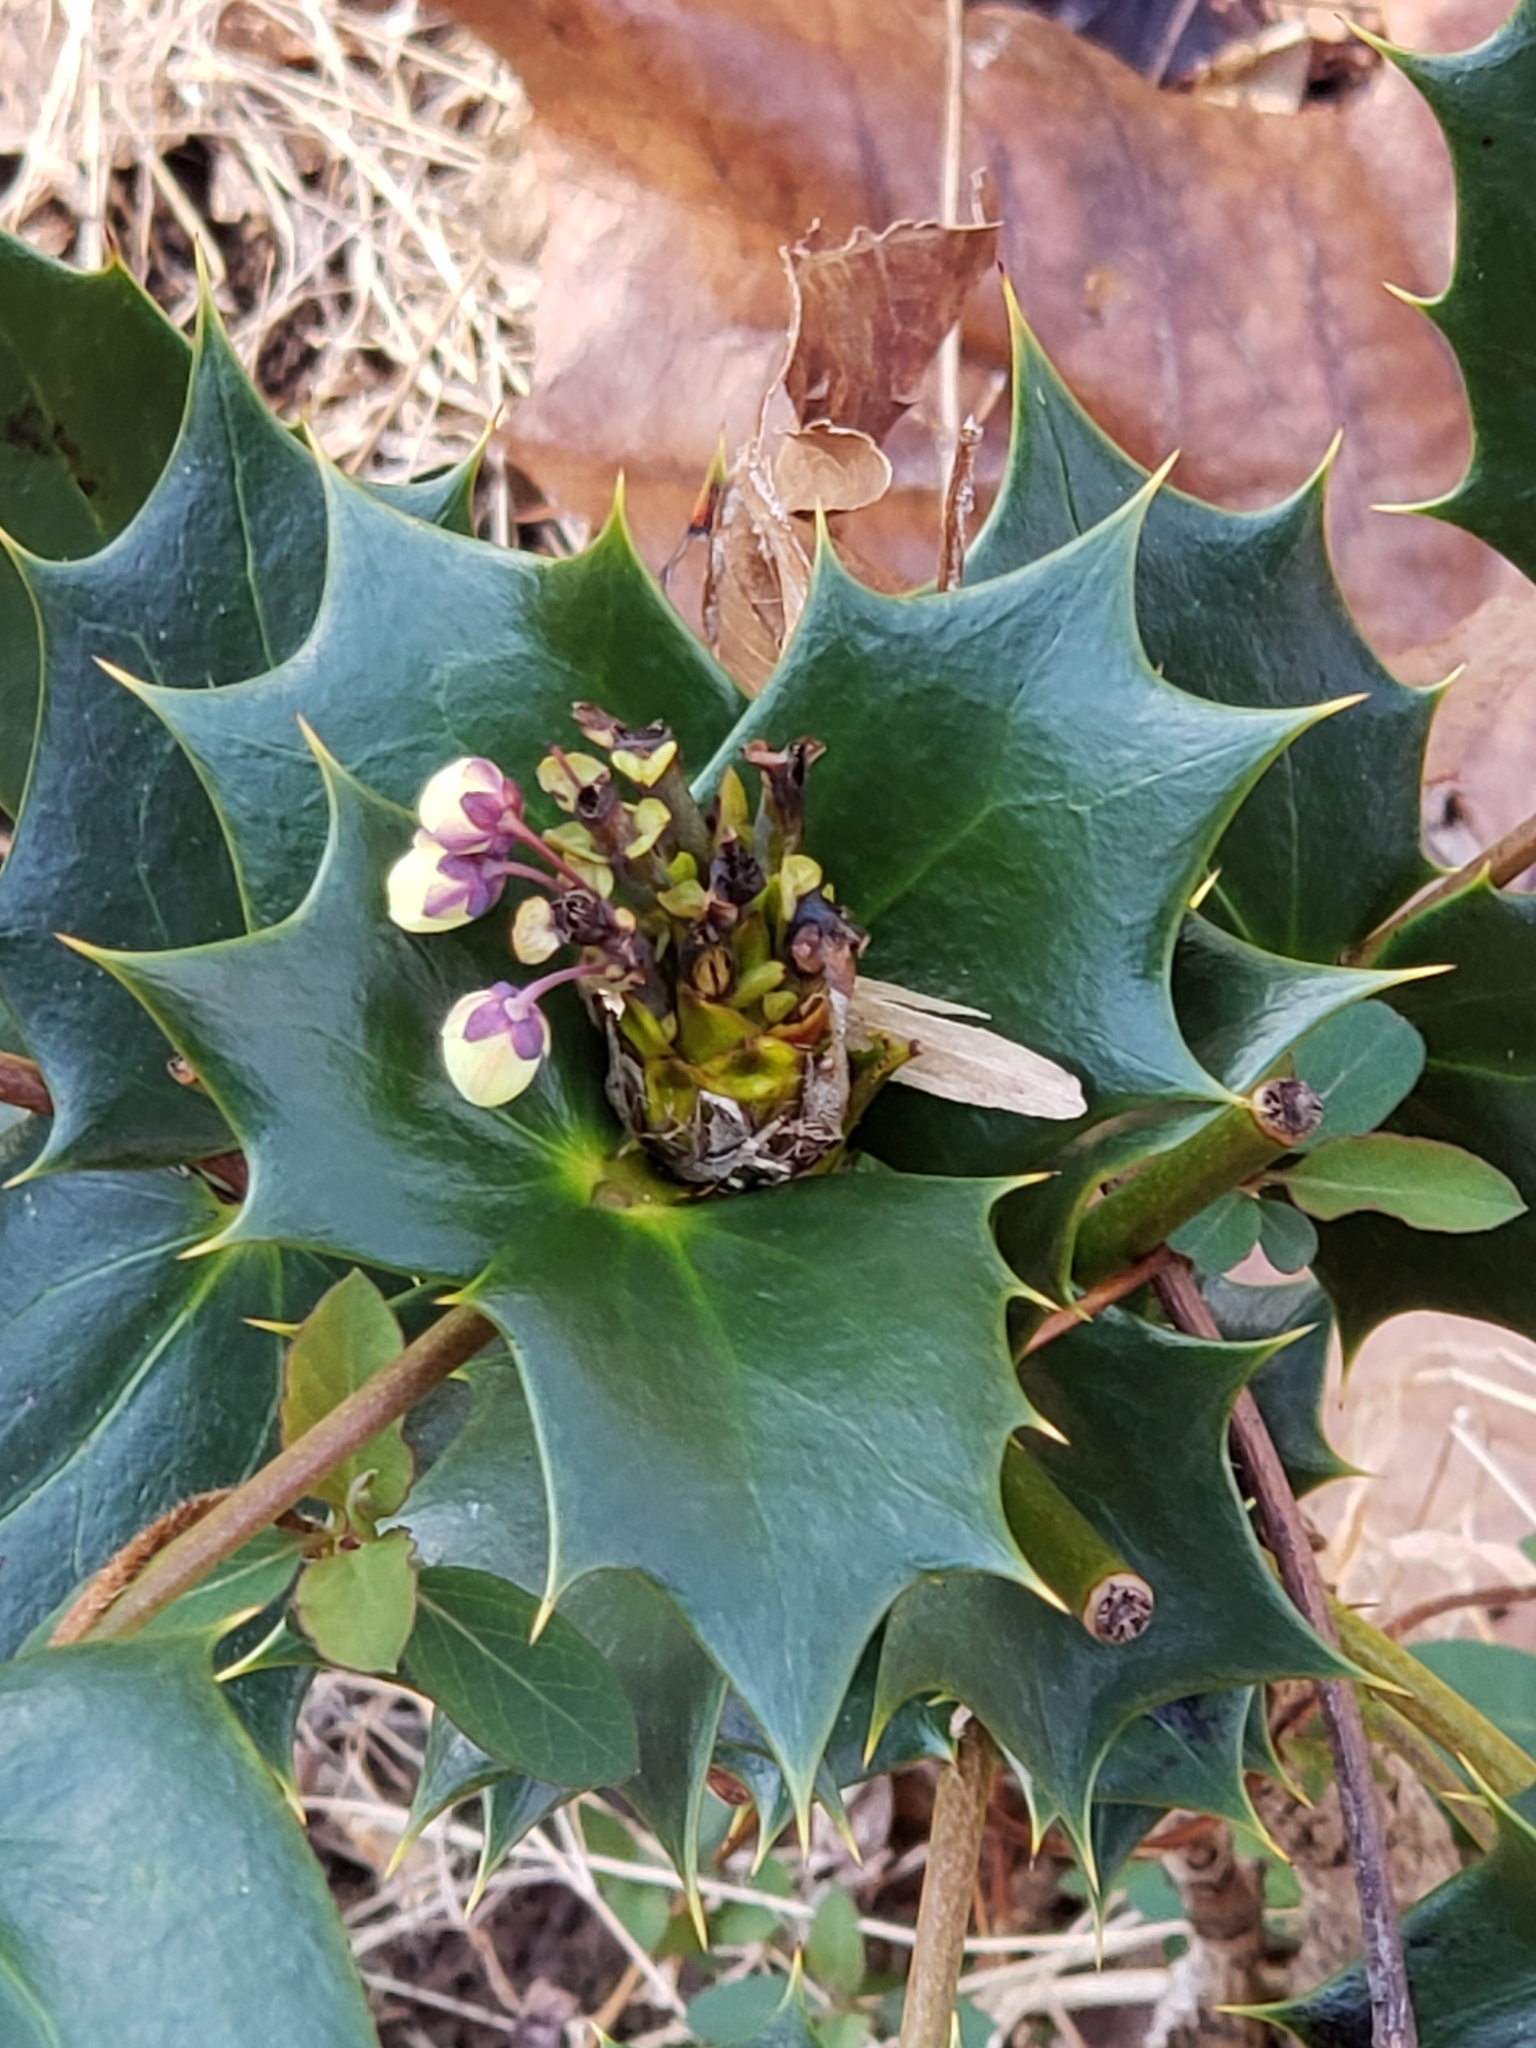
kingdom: Plantae
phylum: Tracheophyta
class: Magnoliopsida
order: Ranunculales
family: Berberidaceae
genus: Mahonia
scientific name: Mahonia bealei
